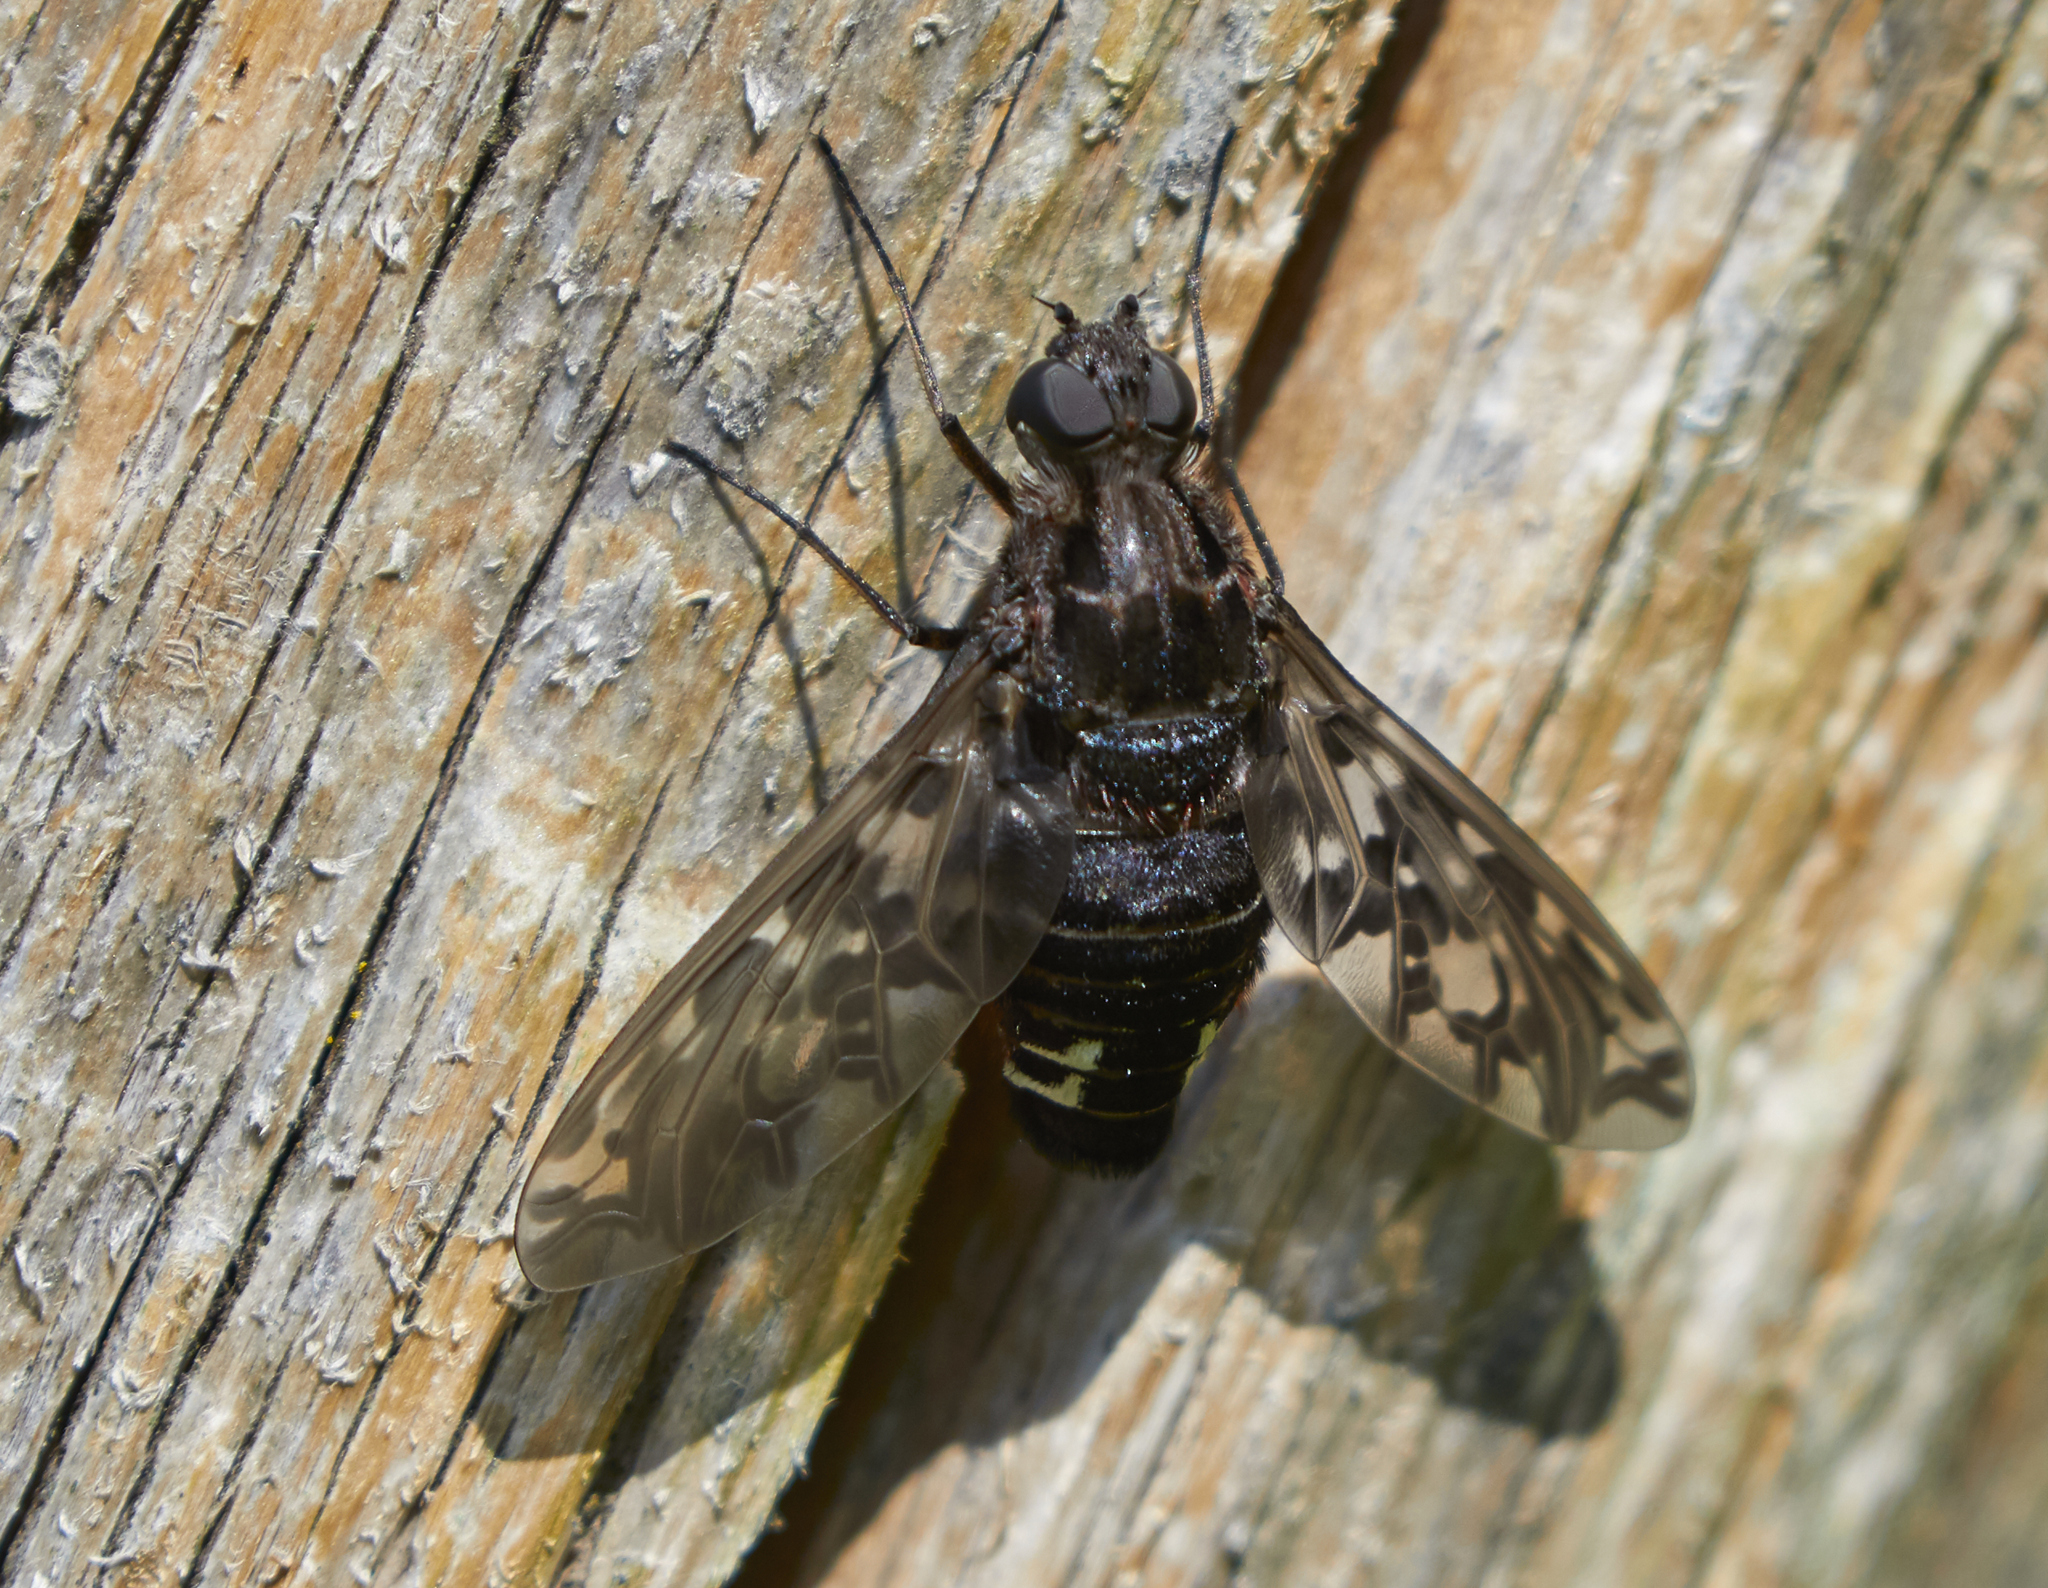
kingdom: Animalia
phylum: Arthropoda
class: Insecta
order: Diptera
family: Bombyliidae
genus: Xenox
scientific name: Xenox tigrinus
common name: Tiger bee fly
